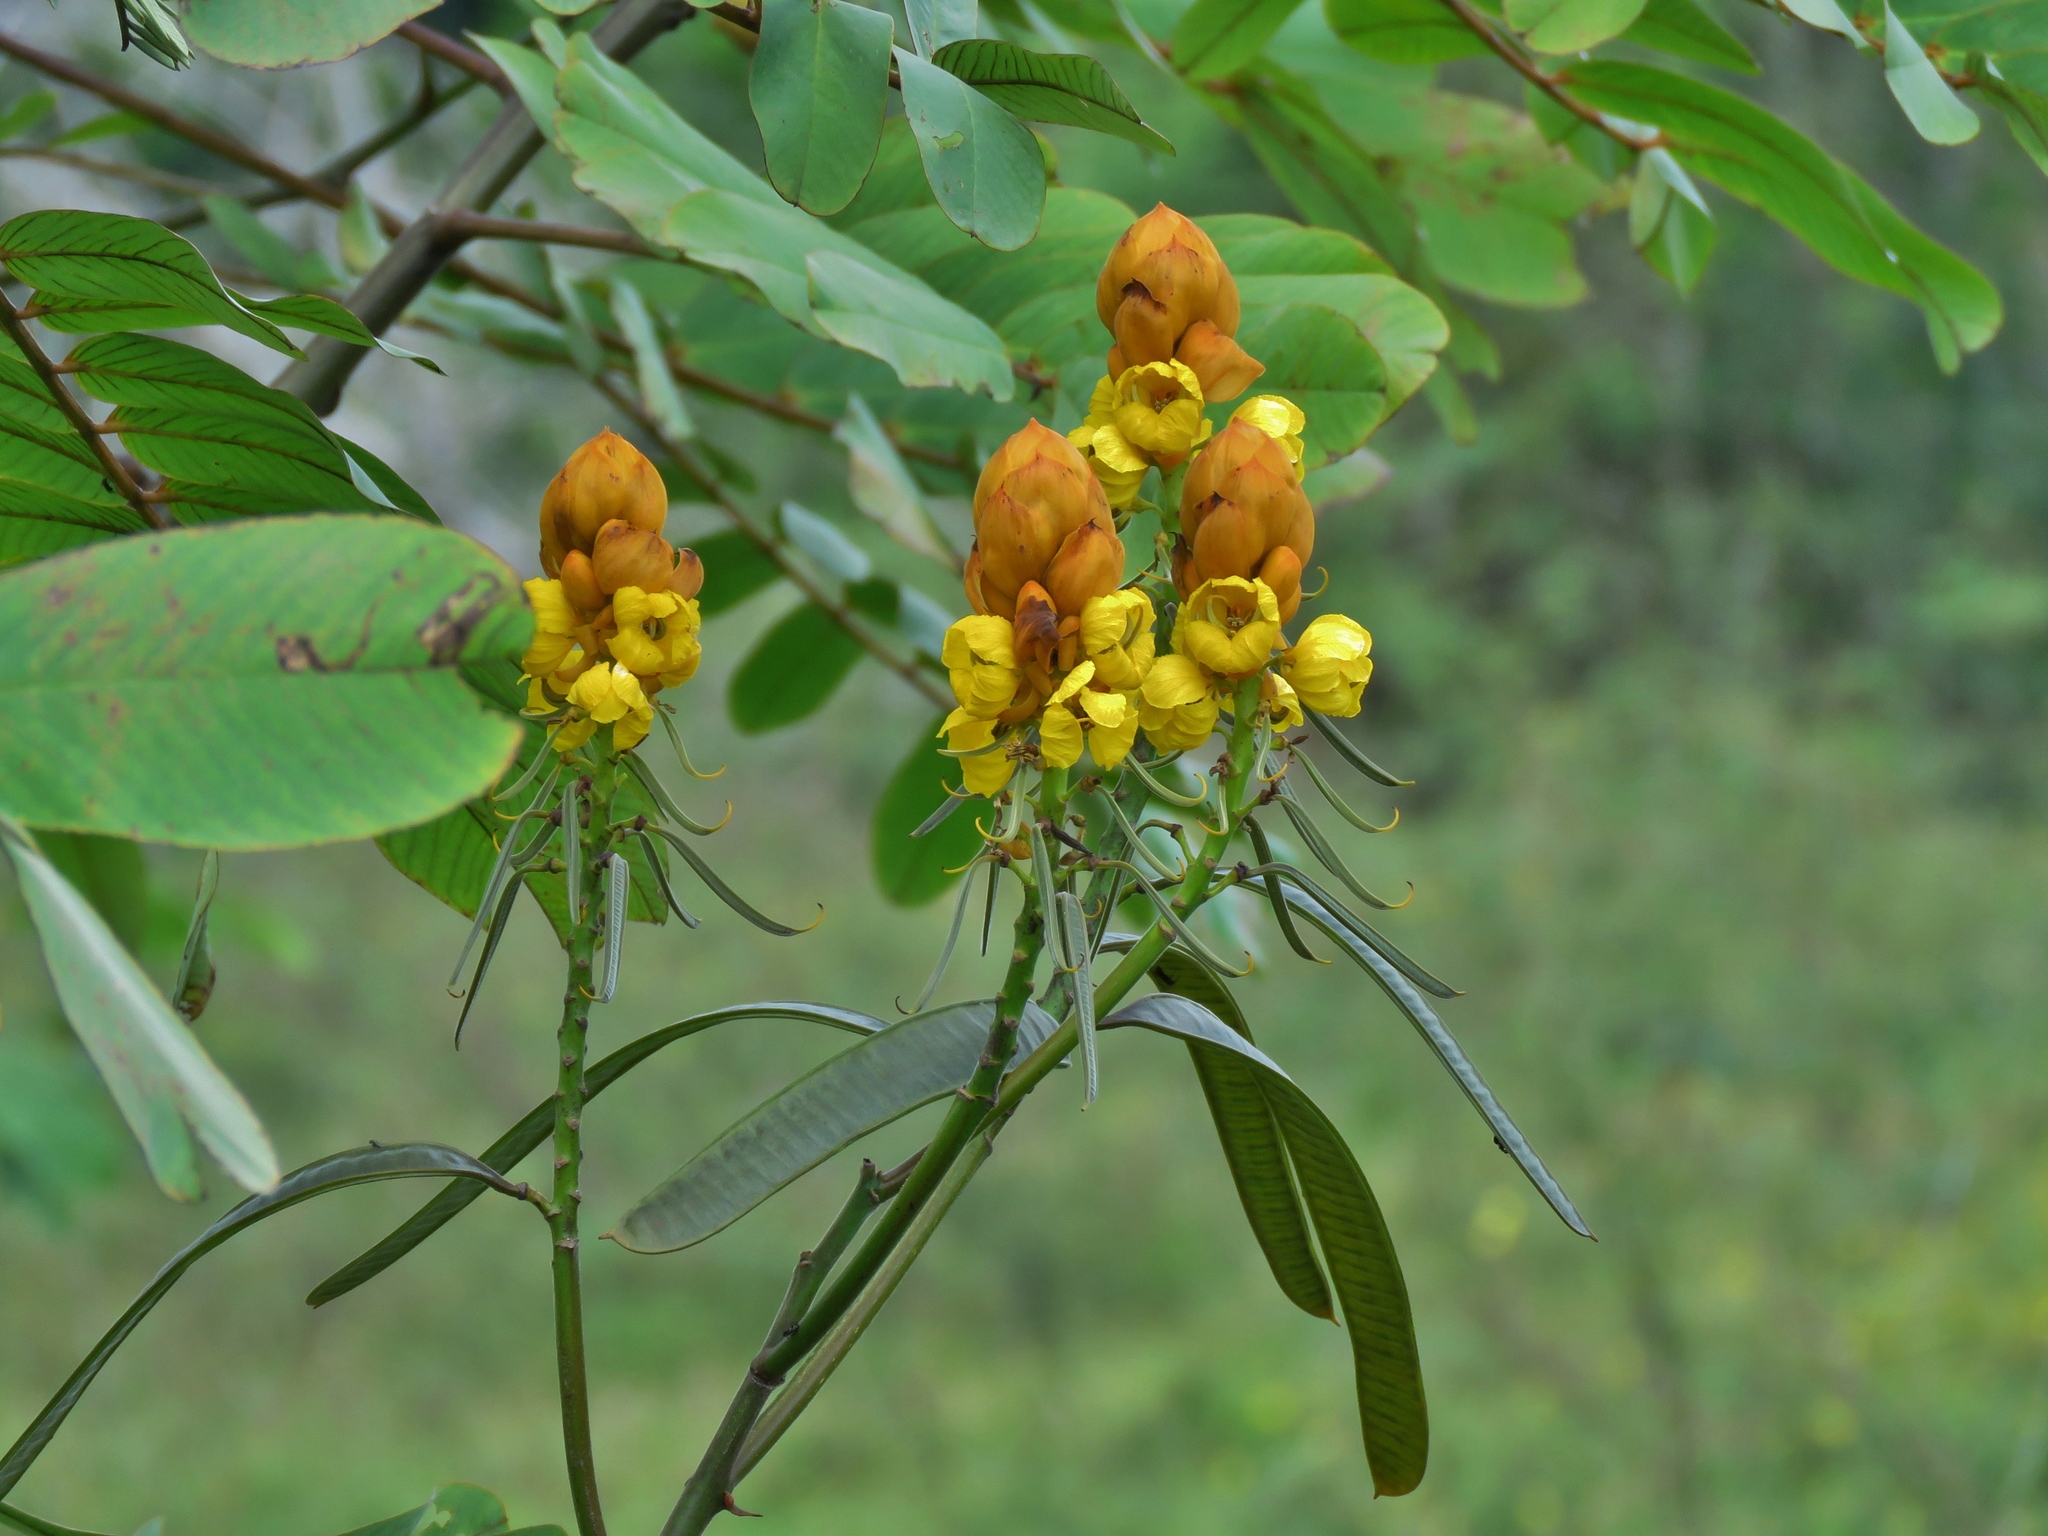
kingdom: Plantae
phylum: Tracheophyta
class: Magnoliopsida
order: Fabales
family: Fabaceae
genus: Senna
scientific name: Senna reticulata
